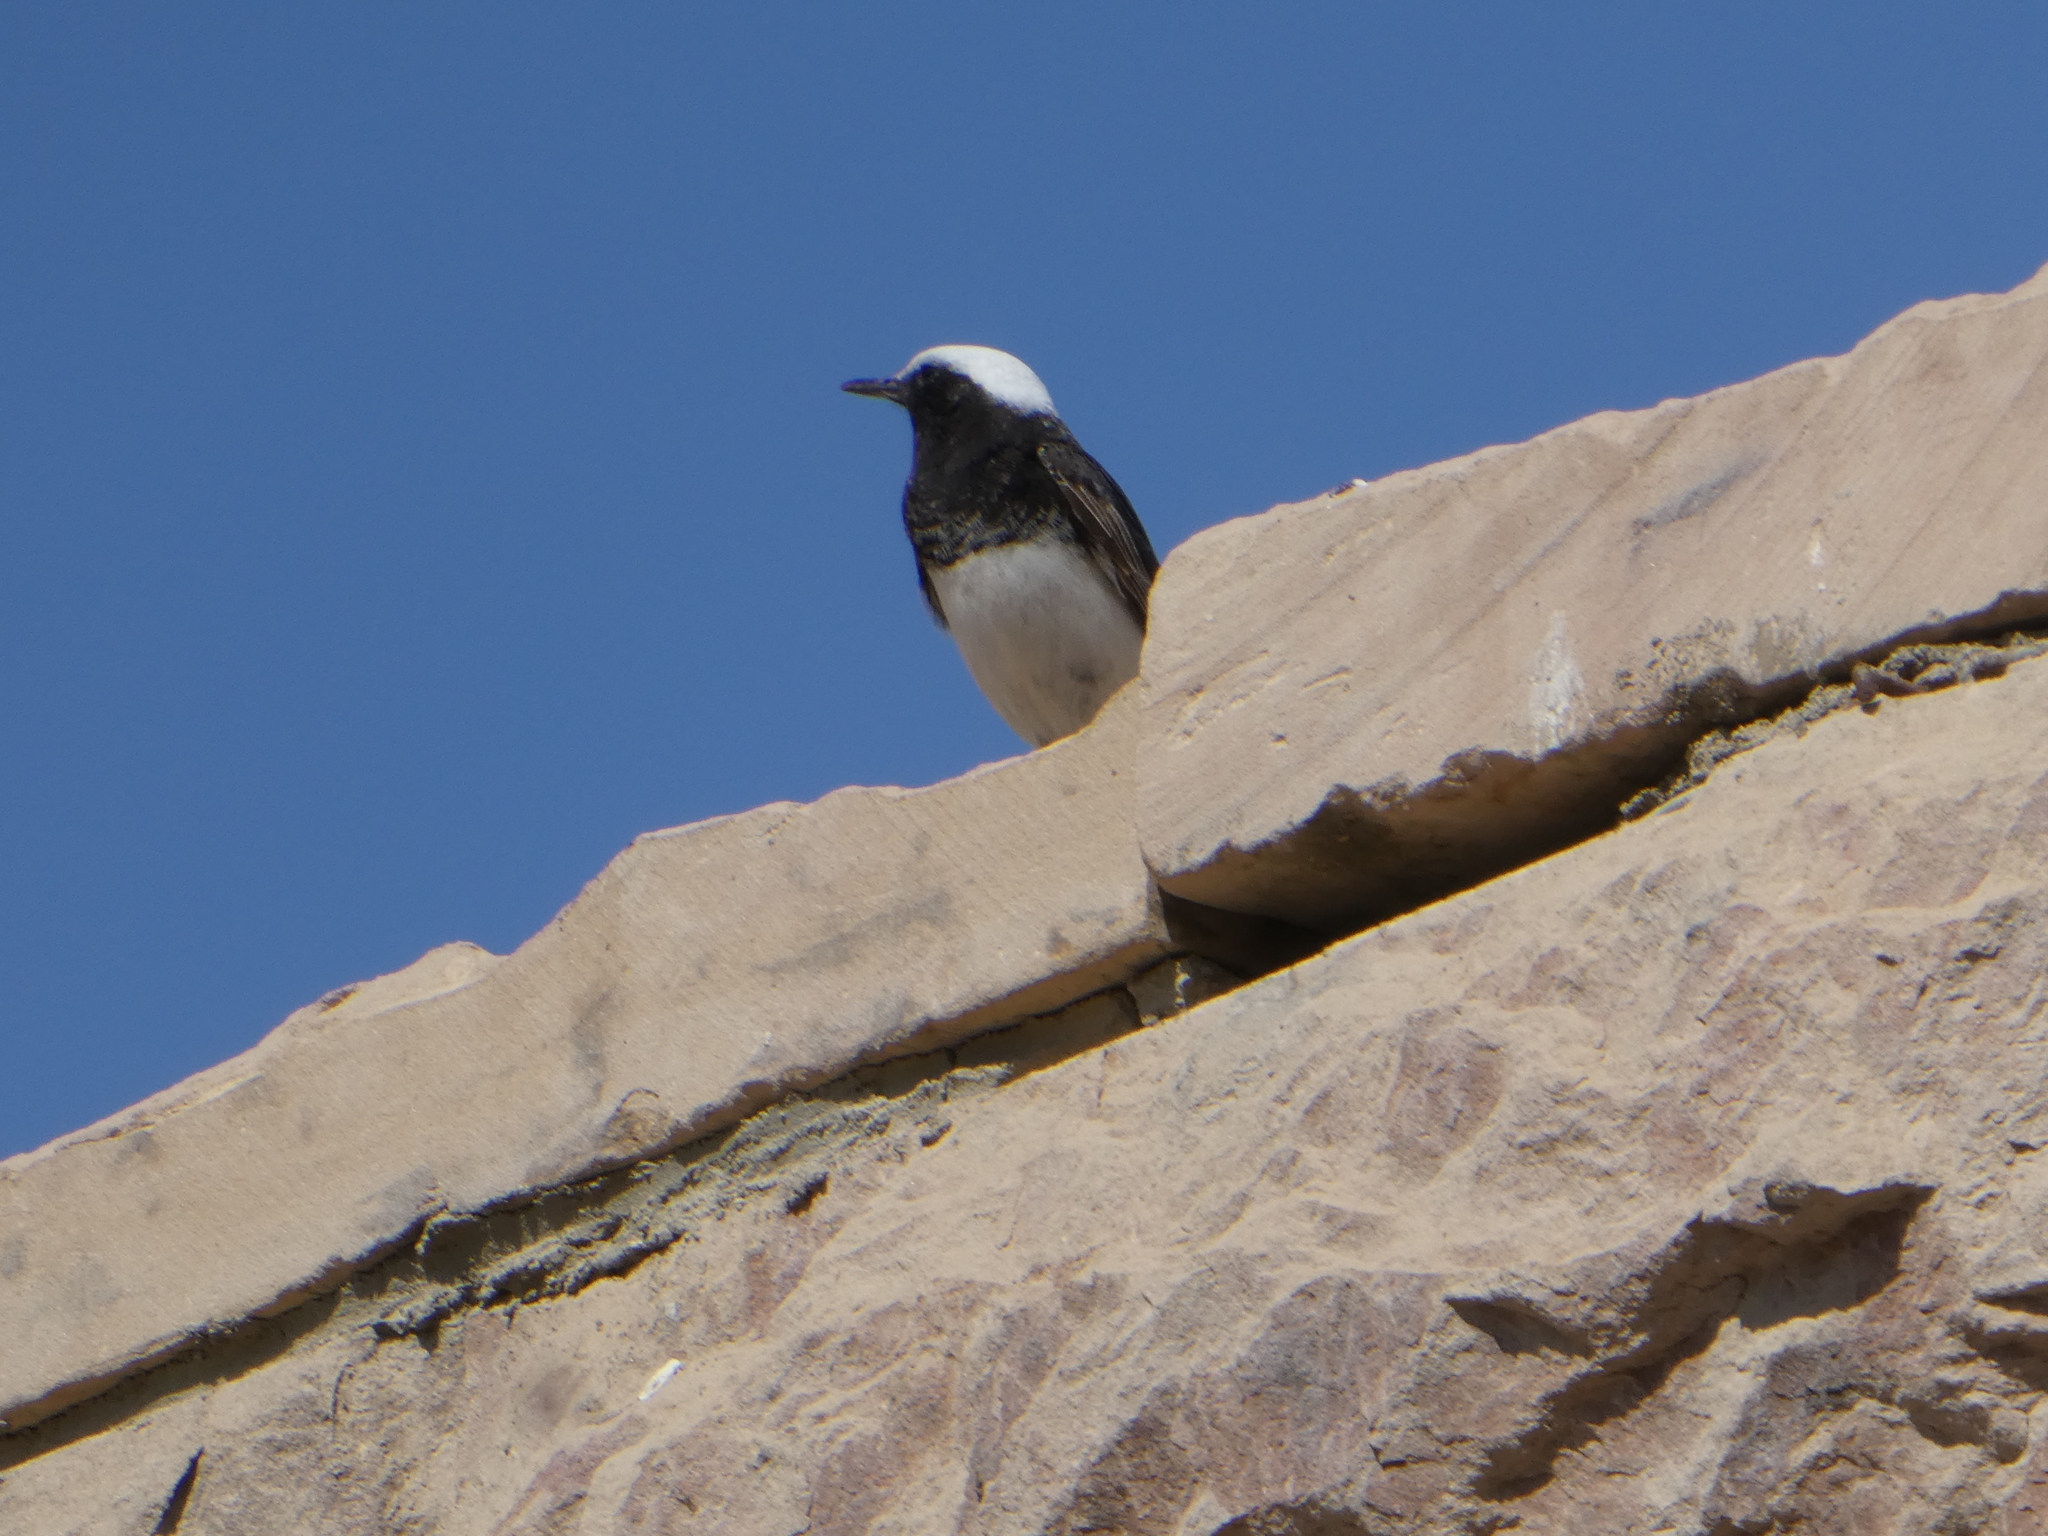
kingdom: Animalia
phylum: Chordata
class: Aves
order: Passeriformes
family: Muscicapidae
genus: Oenanthe
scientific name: Oenanthe pleschanka
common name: Pied wheatear
